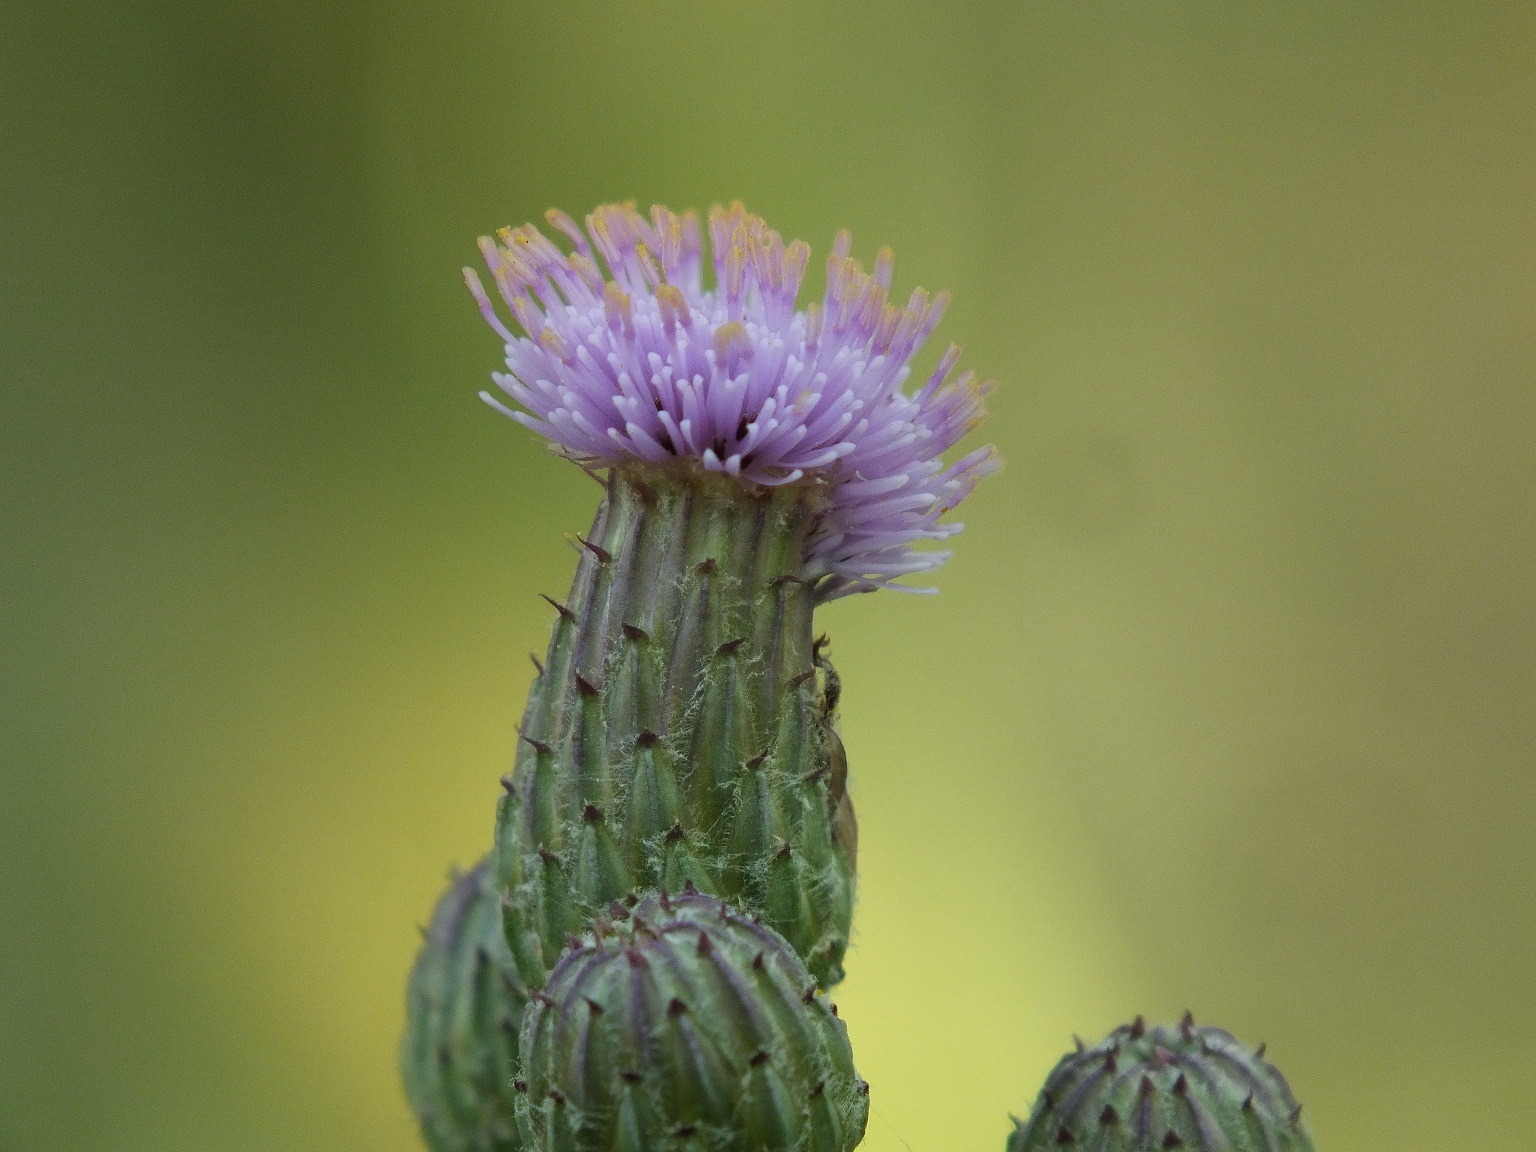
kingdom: Plantae
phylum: Tracheophyta
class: Magnoliopsida
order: Asterales
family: Asteraceae
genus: Cirsium
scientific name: Cirsium arvense
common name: Creeping thistle
